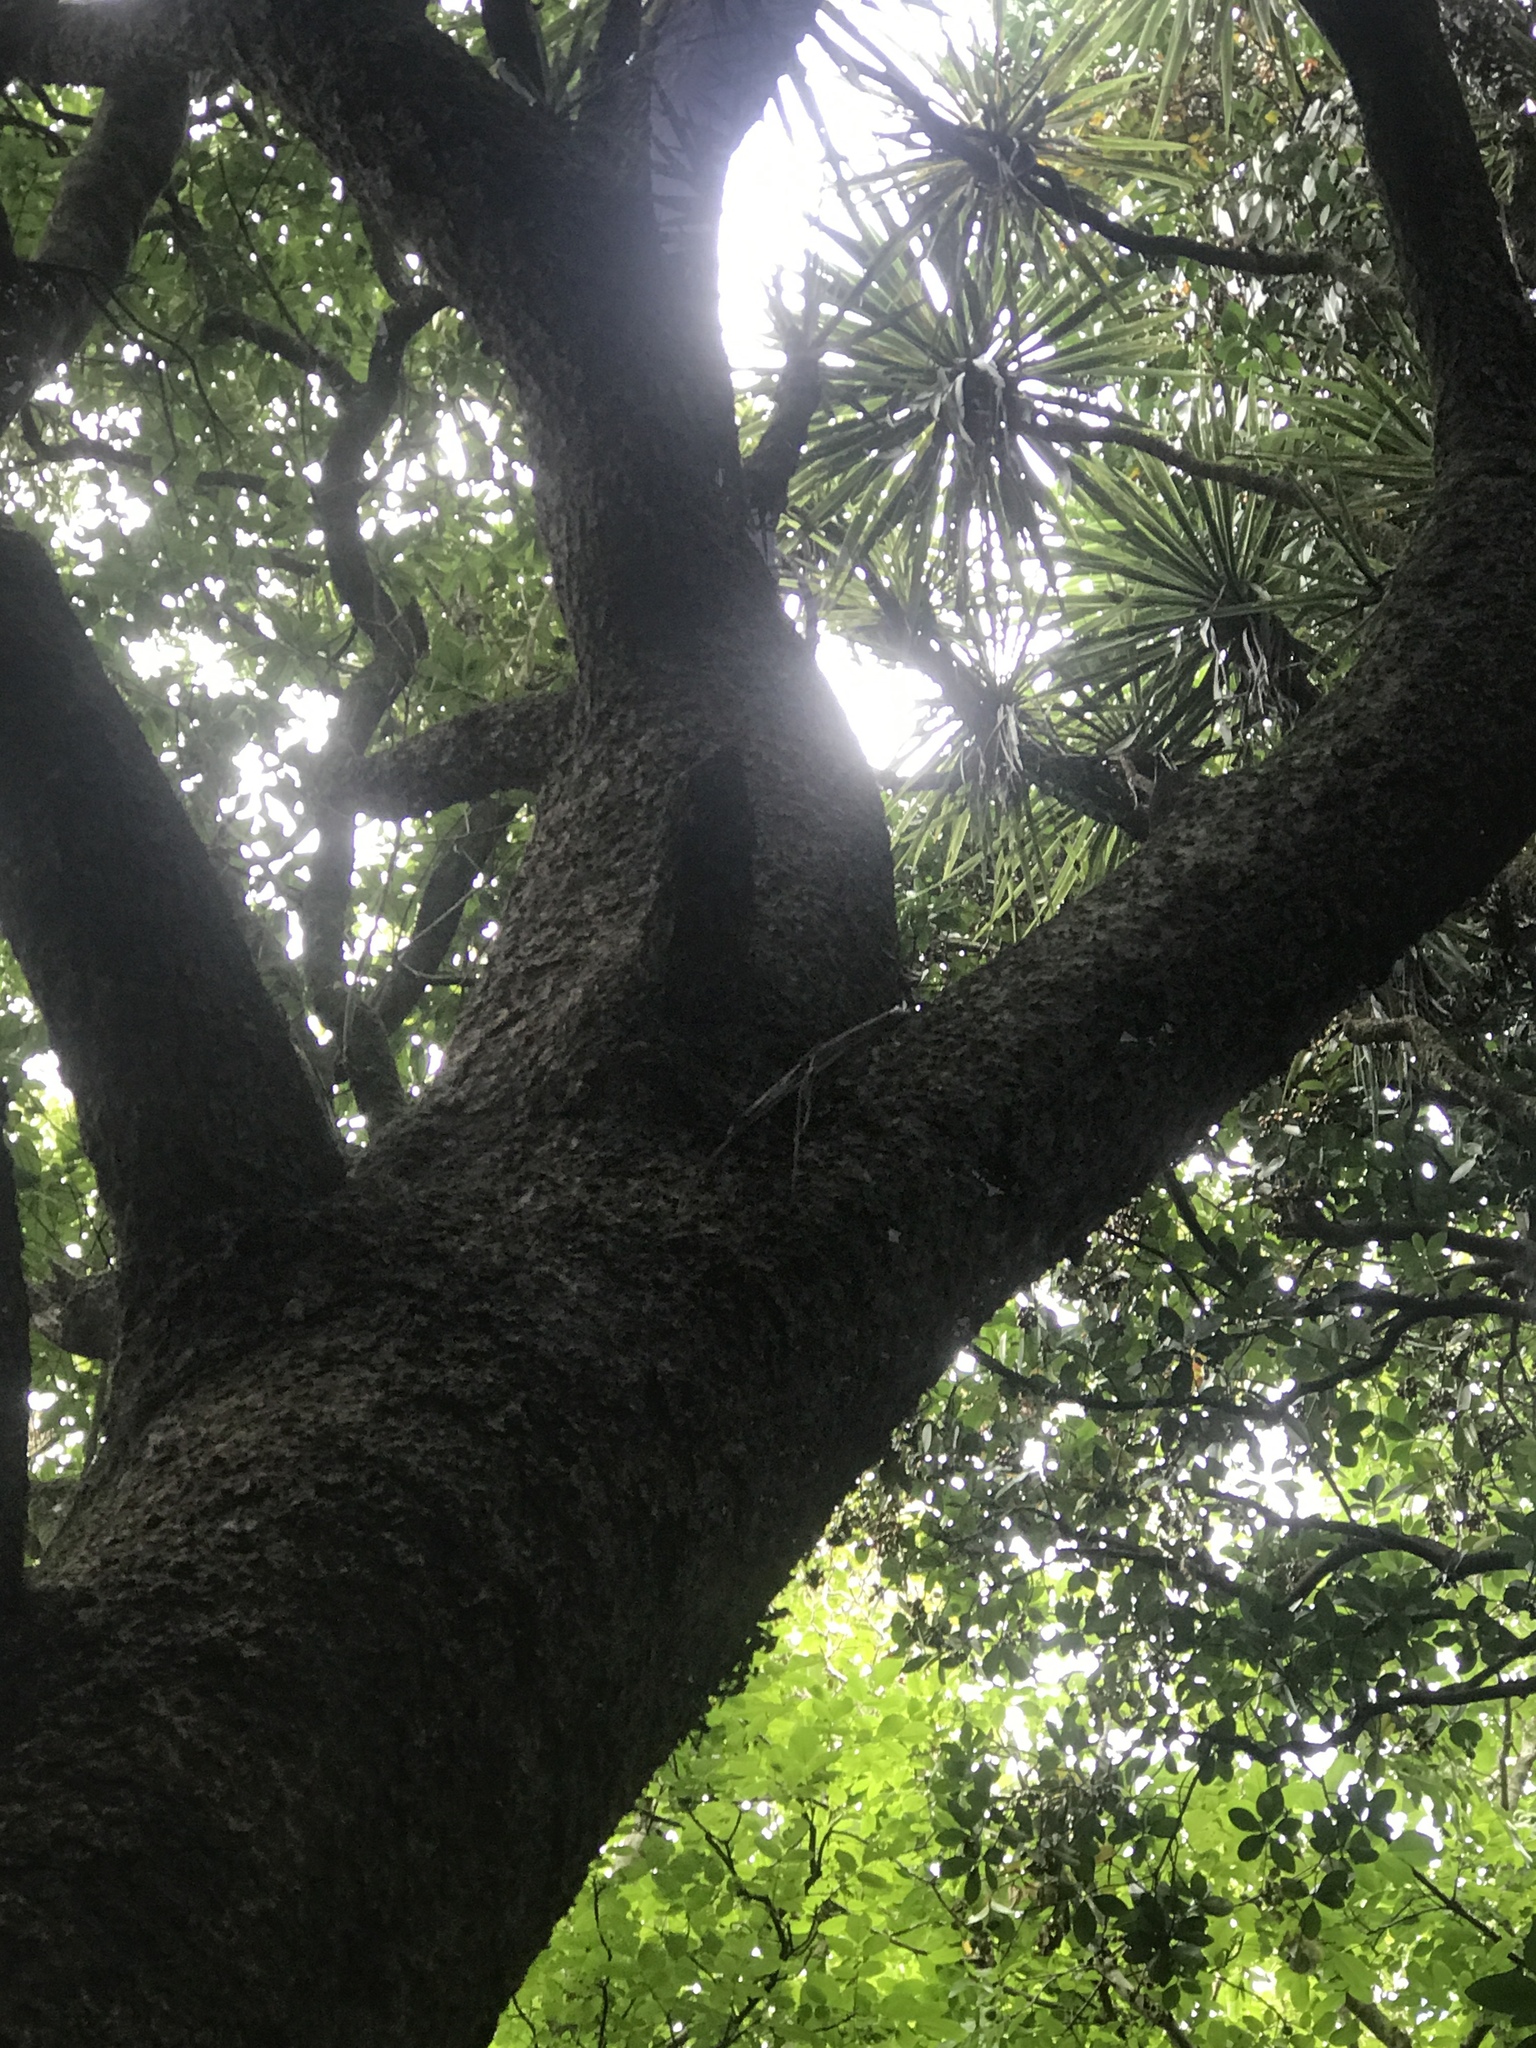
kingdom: Plantae
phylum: Tracheophyta
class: Liliopsida
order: Asparagales
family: Asparagaceae
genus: Cordyline
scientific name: Cordyline australis
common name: Cabbage-palm
